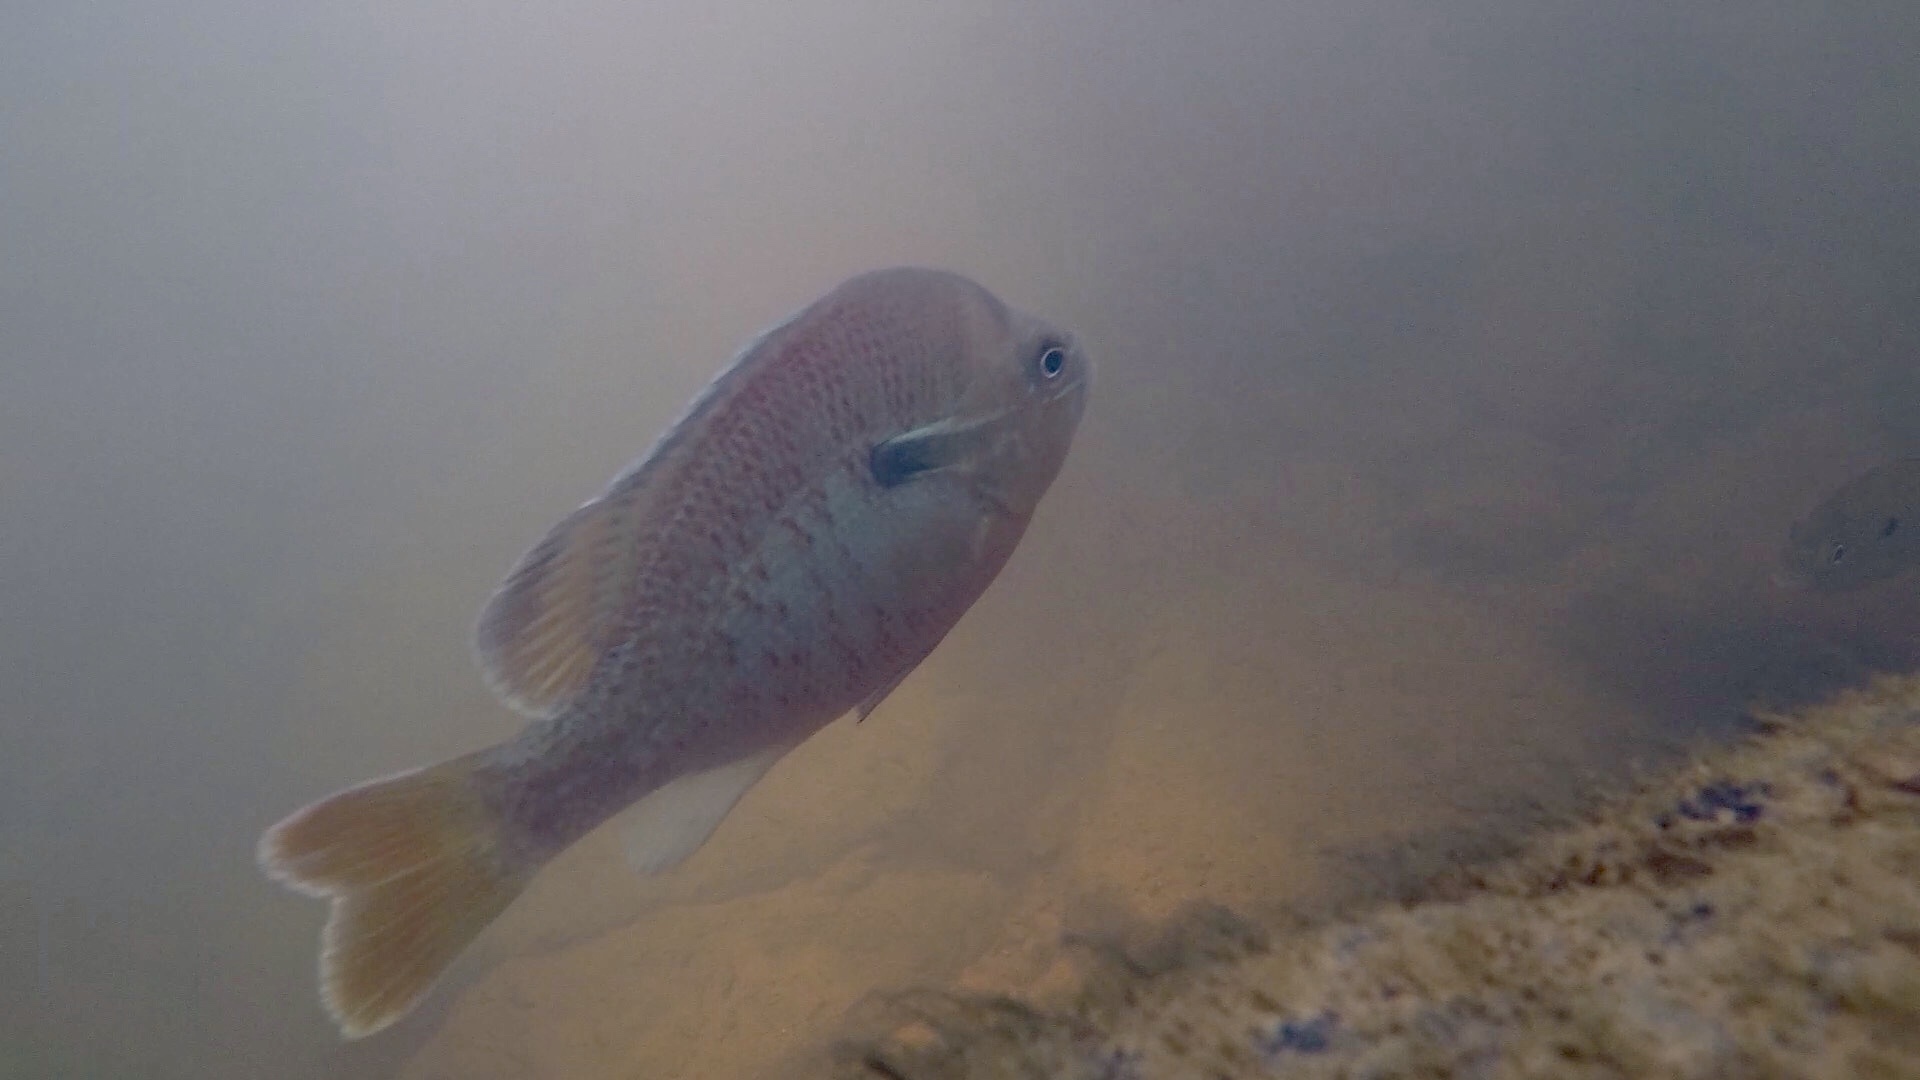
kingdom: Animalia
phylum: Chordata
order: Perciformes
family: Centrarchidae
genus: Lepomis
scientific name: Lepomis auritus
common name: Redbreast sunfish
